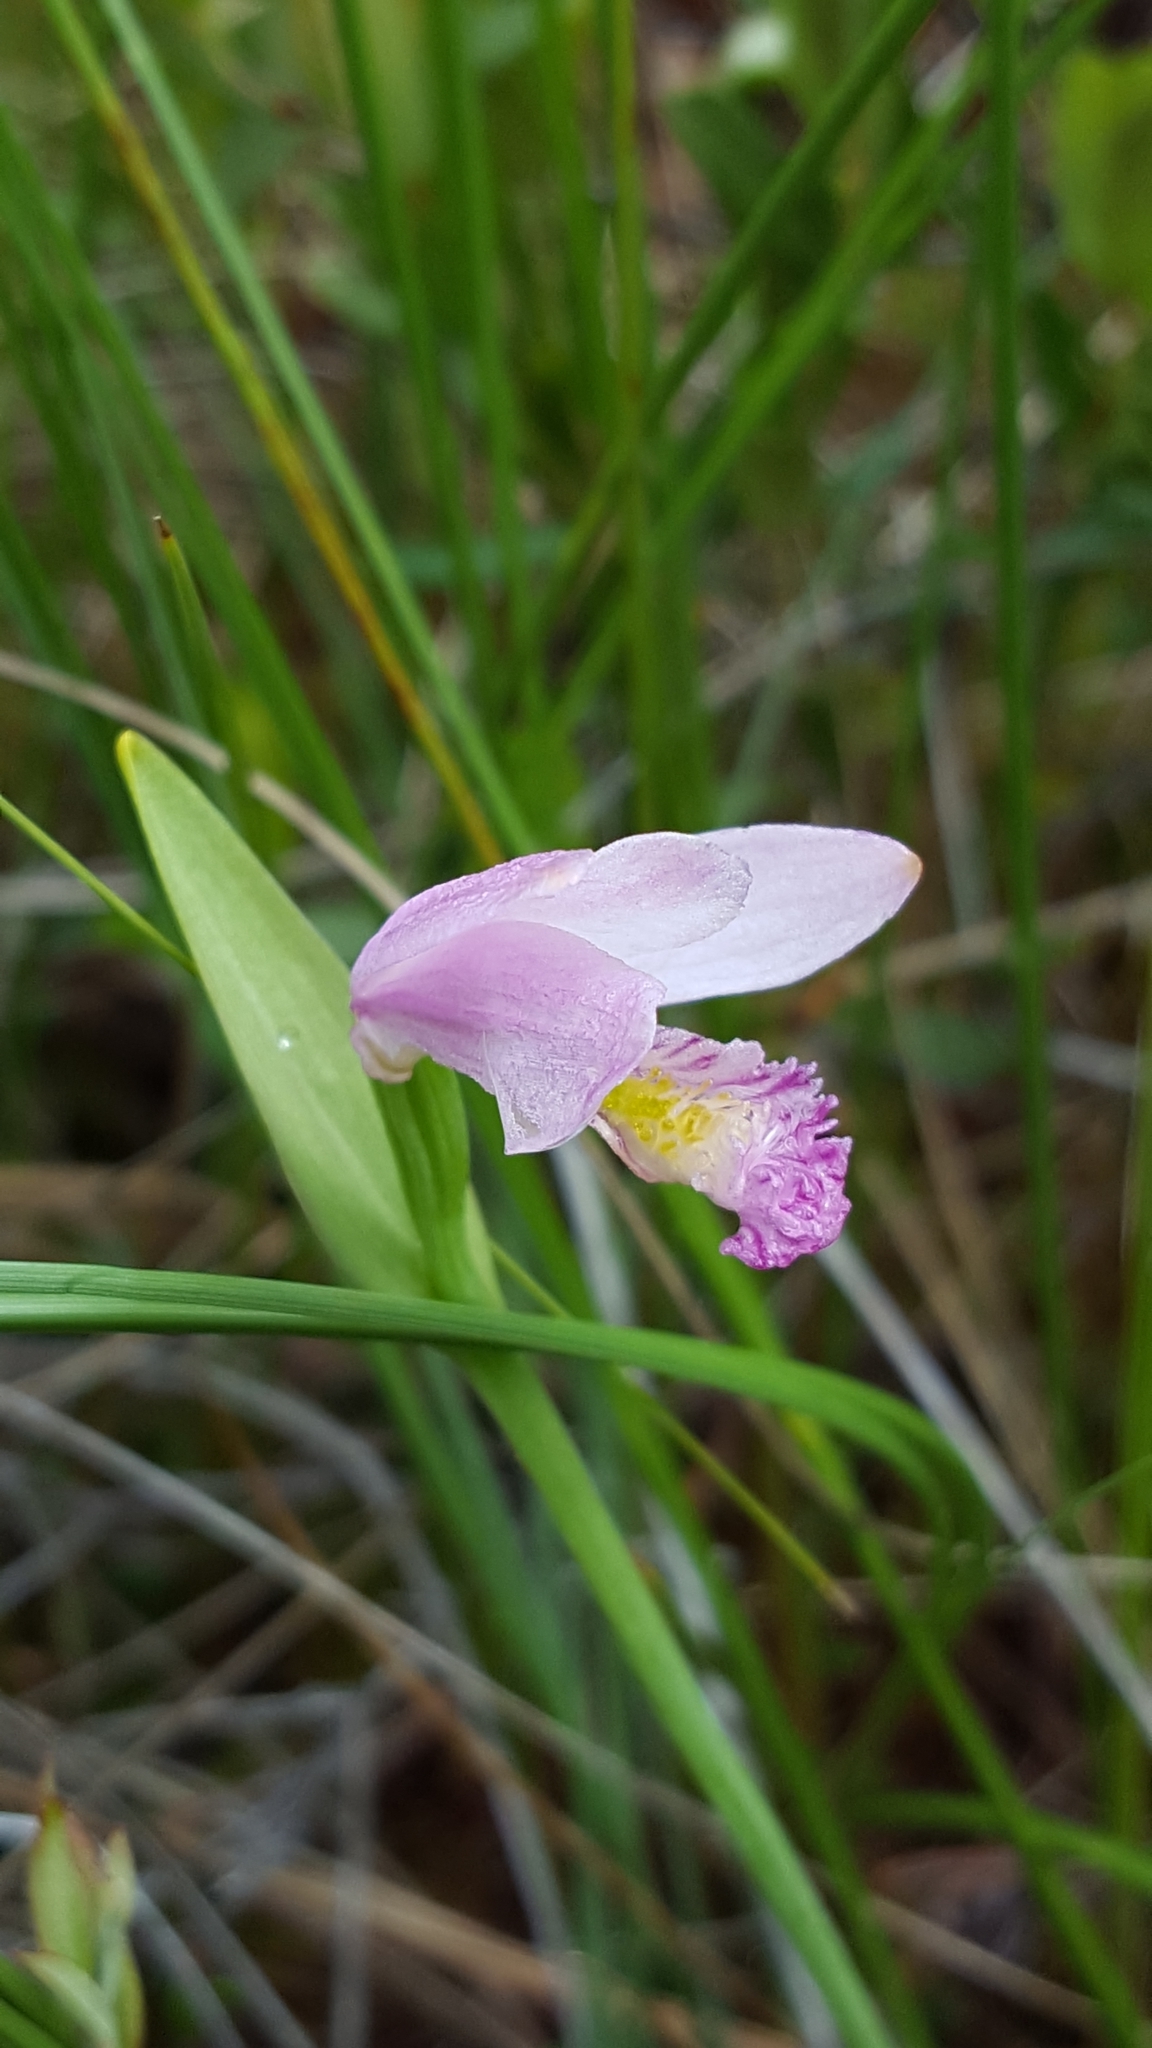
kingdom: Plantae
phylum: Tracheophyta
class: Liliopsida
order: Asparagales
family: Orchidaceae
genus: Pogonia
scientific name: Pogonia ophioglossoides
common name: Rose pogonia
